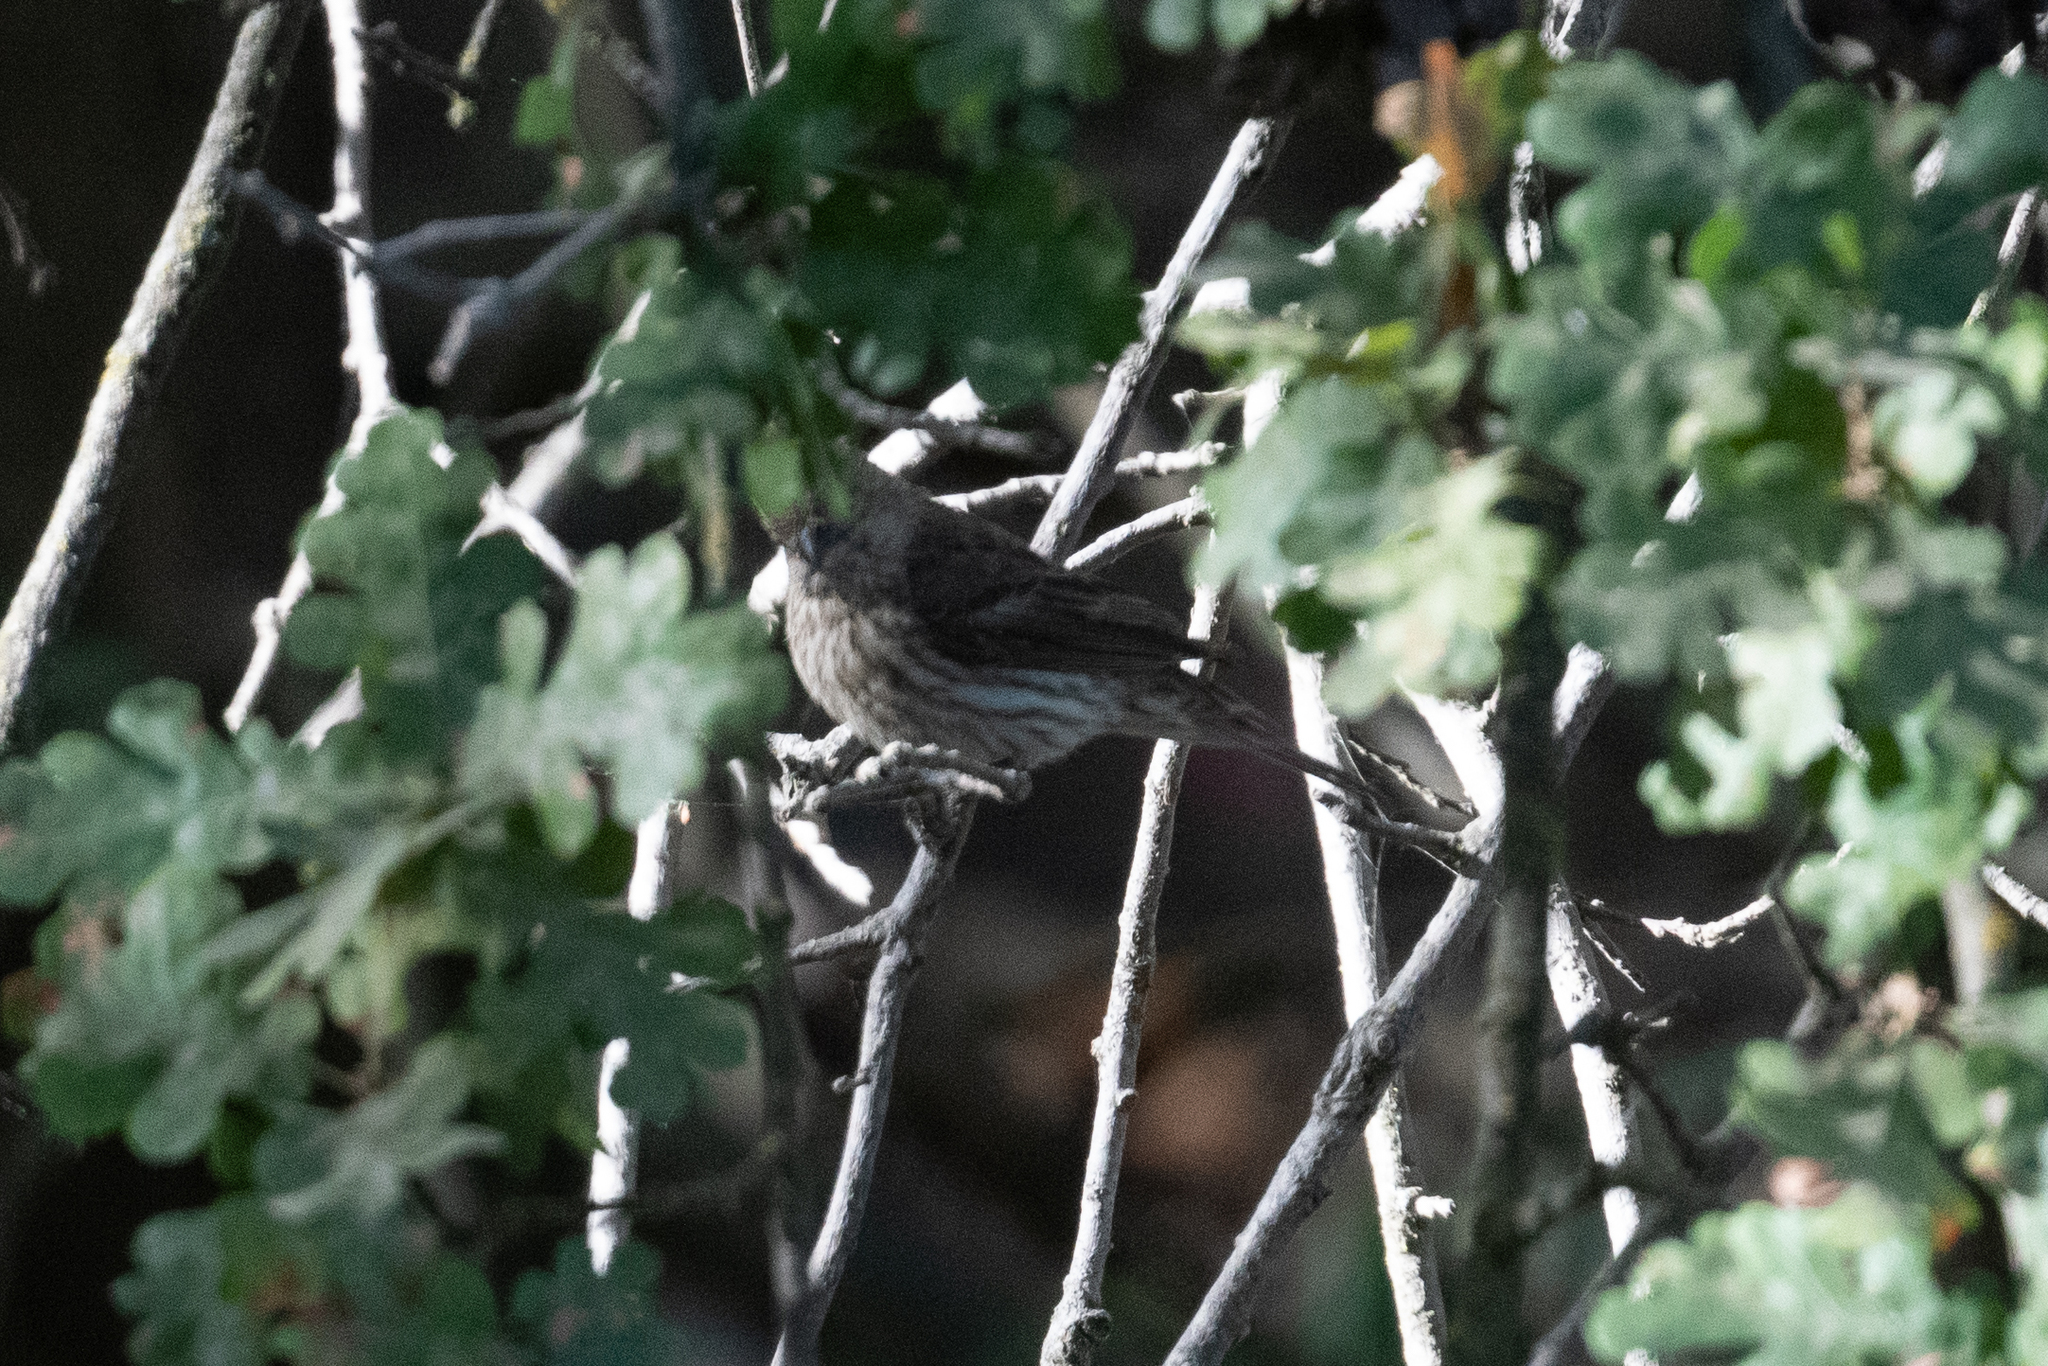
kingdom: Animalia
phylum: Chordata
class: Aves
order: Passeriformes
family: Fringillidae
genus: Haemorhous
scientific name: Haemorhous mexicanus
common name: House finch
